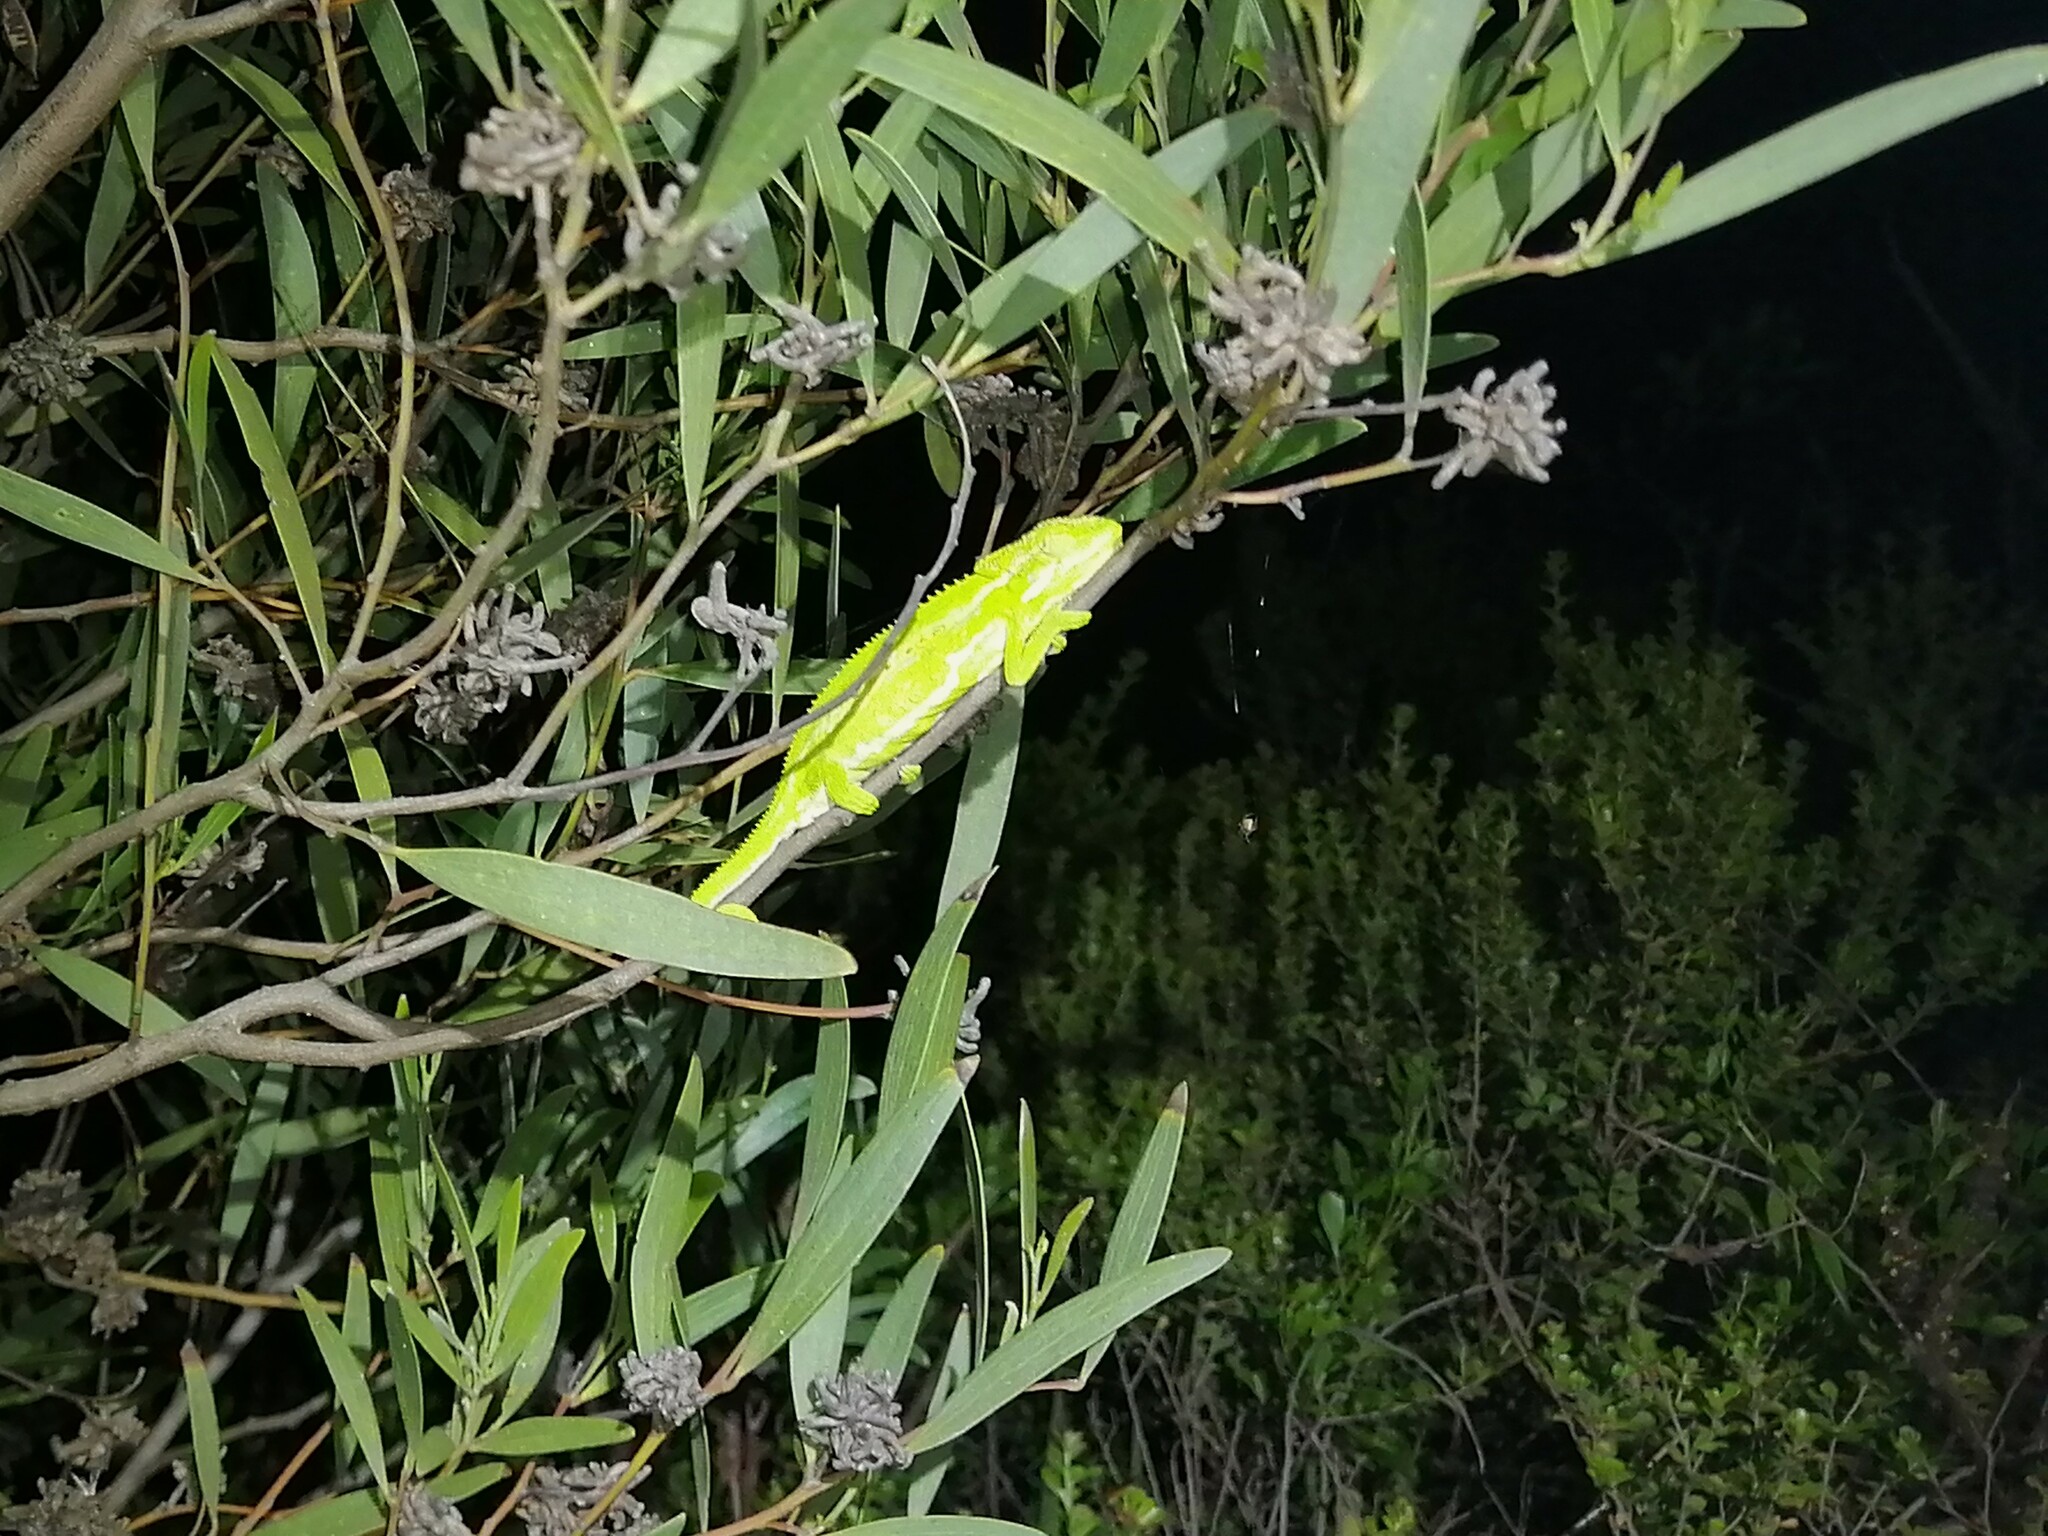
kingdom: Animalia
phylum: Chordata
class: Squamata
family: Chamaeleonidae
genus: Bradypodion
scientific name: Bradypodion pumilum
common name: Cape dwarf chameleon
